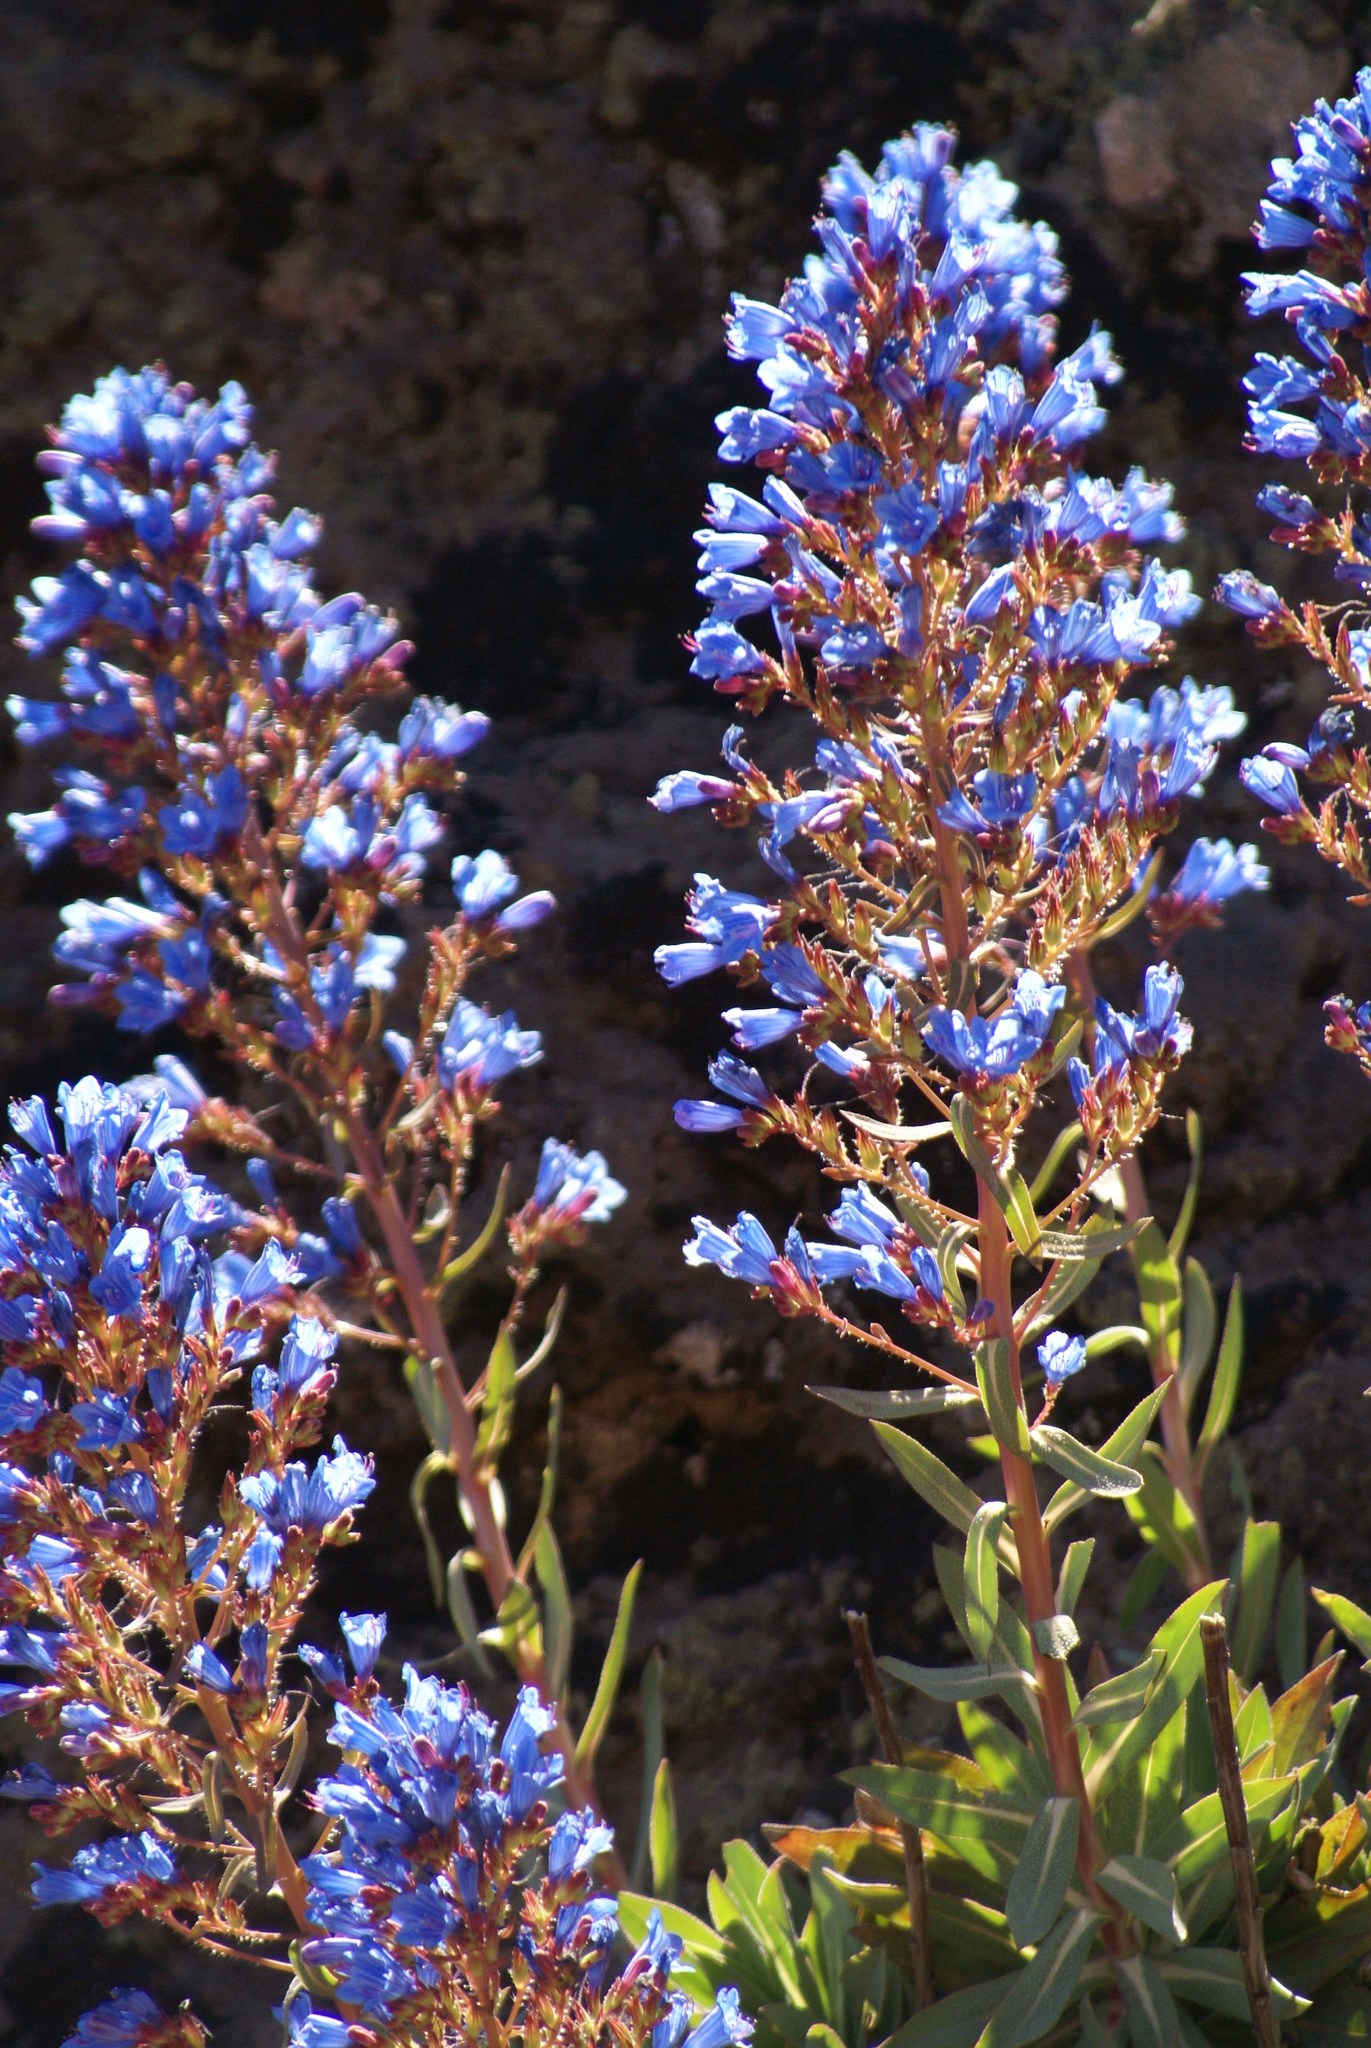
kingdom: Plantae
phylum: Tracheophyta
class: Magnoliopsida
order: Boraginales
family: Boraginaceae
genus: Echium
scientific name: Echium thyrsiflorum
